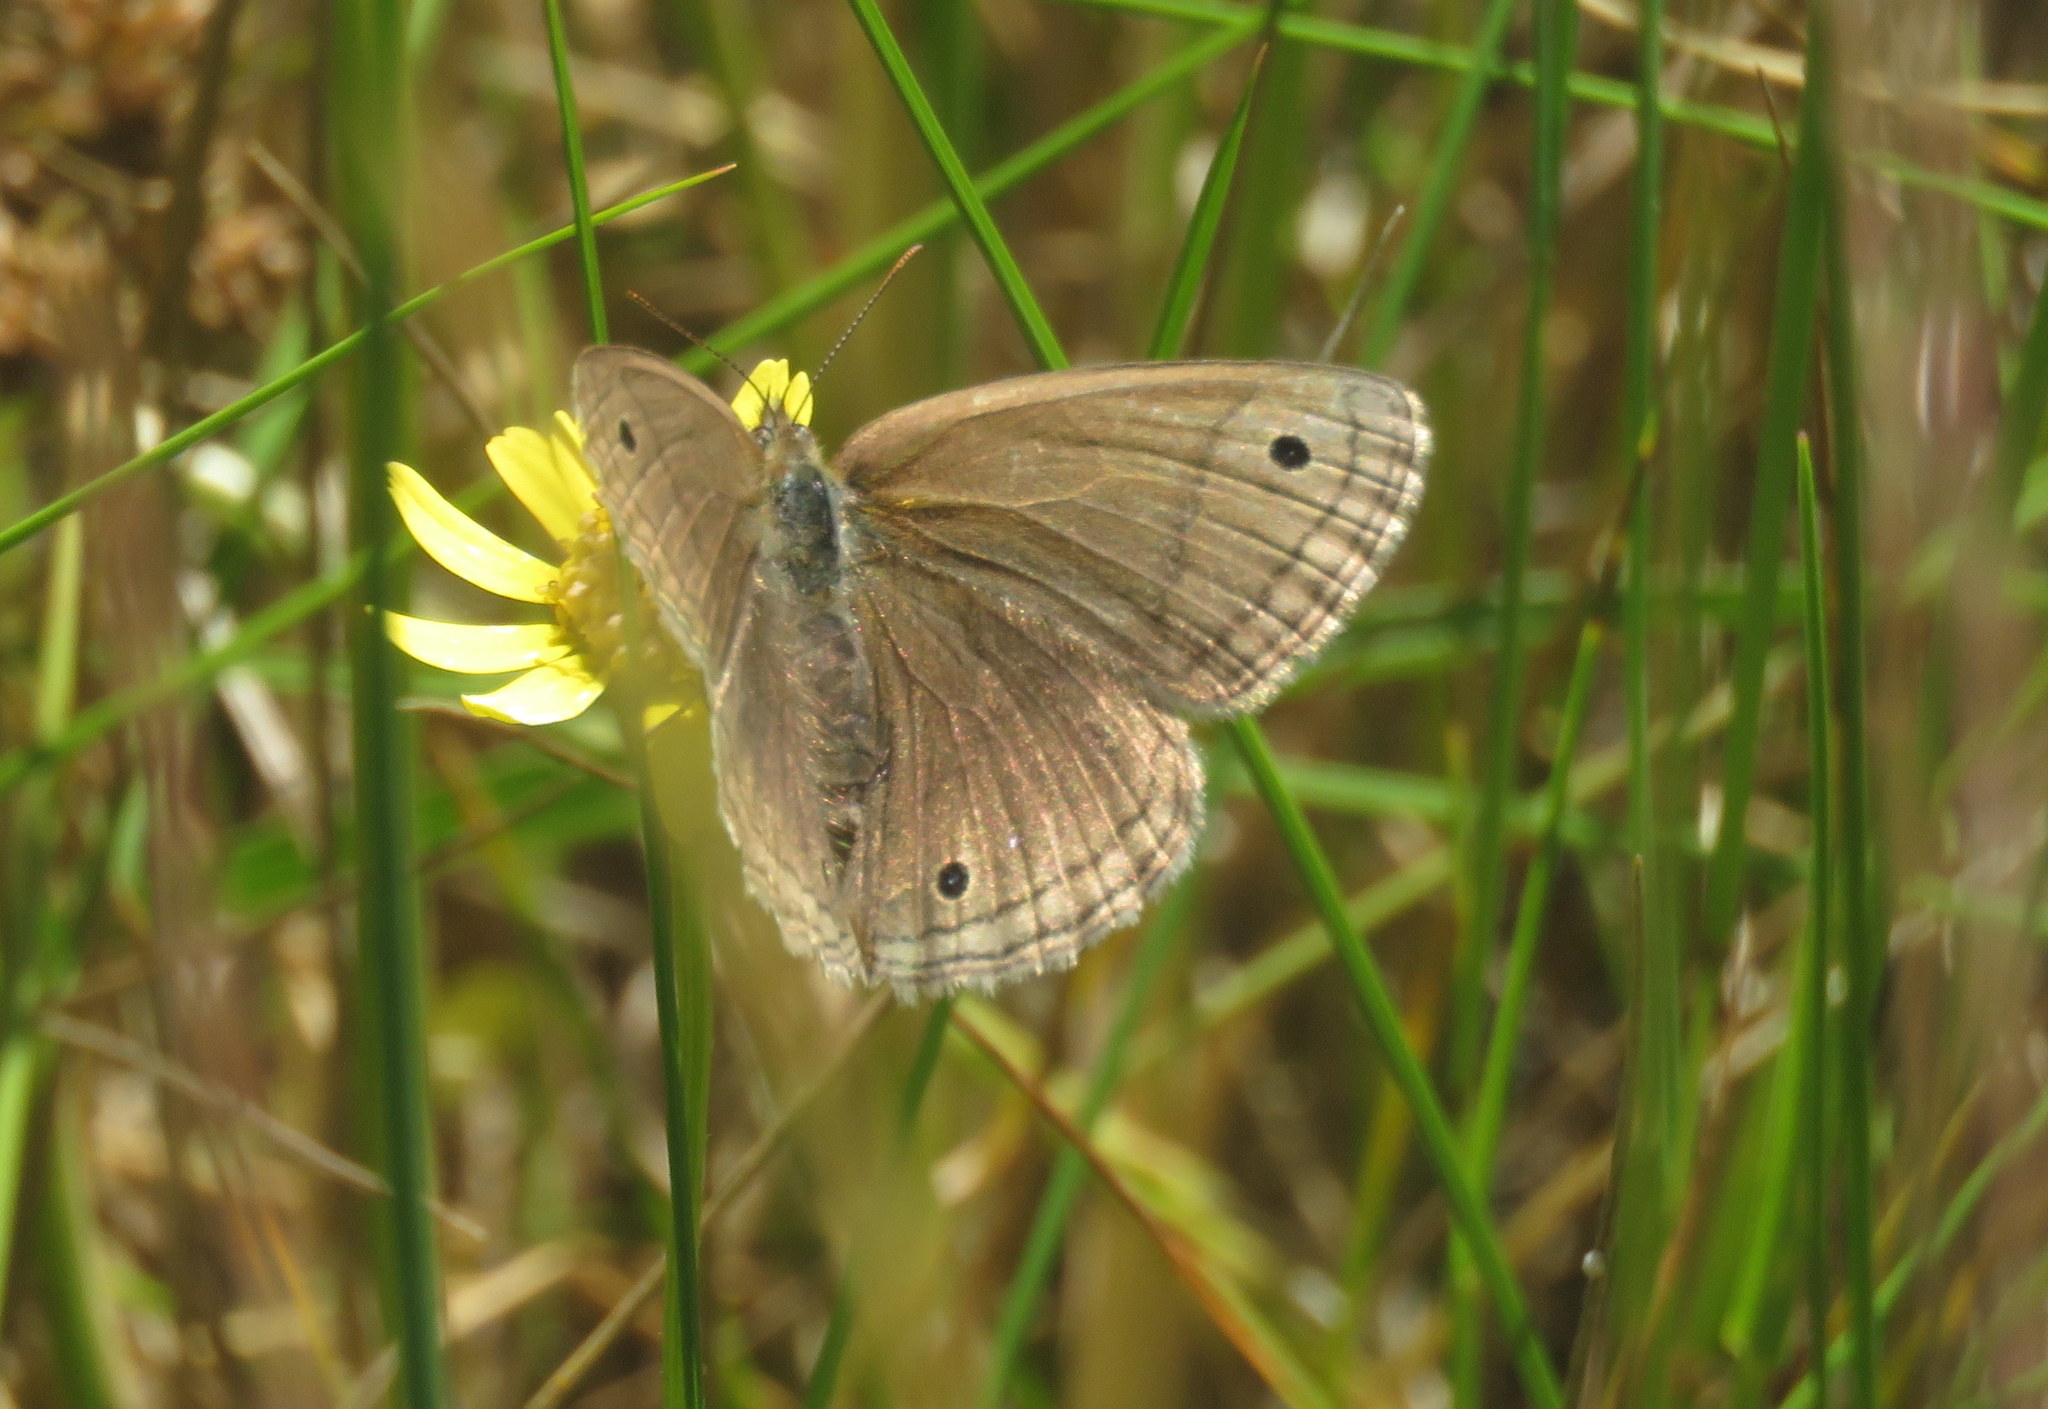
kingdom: Animalia
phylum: Arthropoda
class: Insecta
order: Lepidoptera
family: Nymphalidae
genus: Stegosatyrus
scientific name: Stegosatyrus periphas
